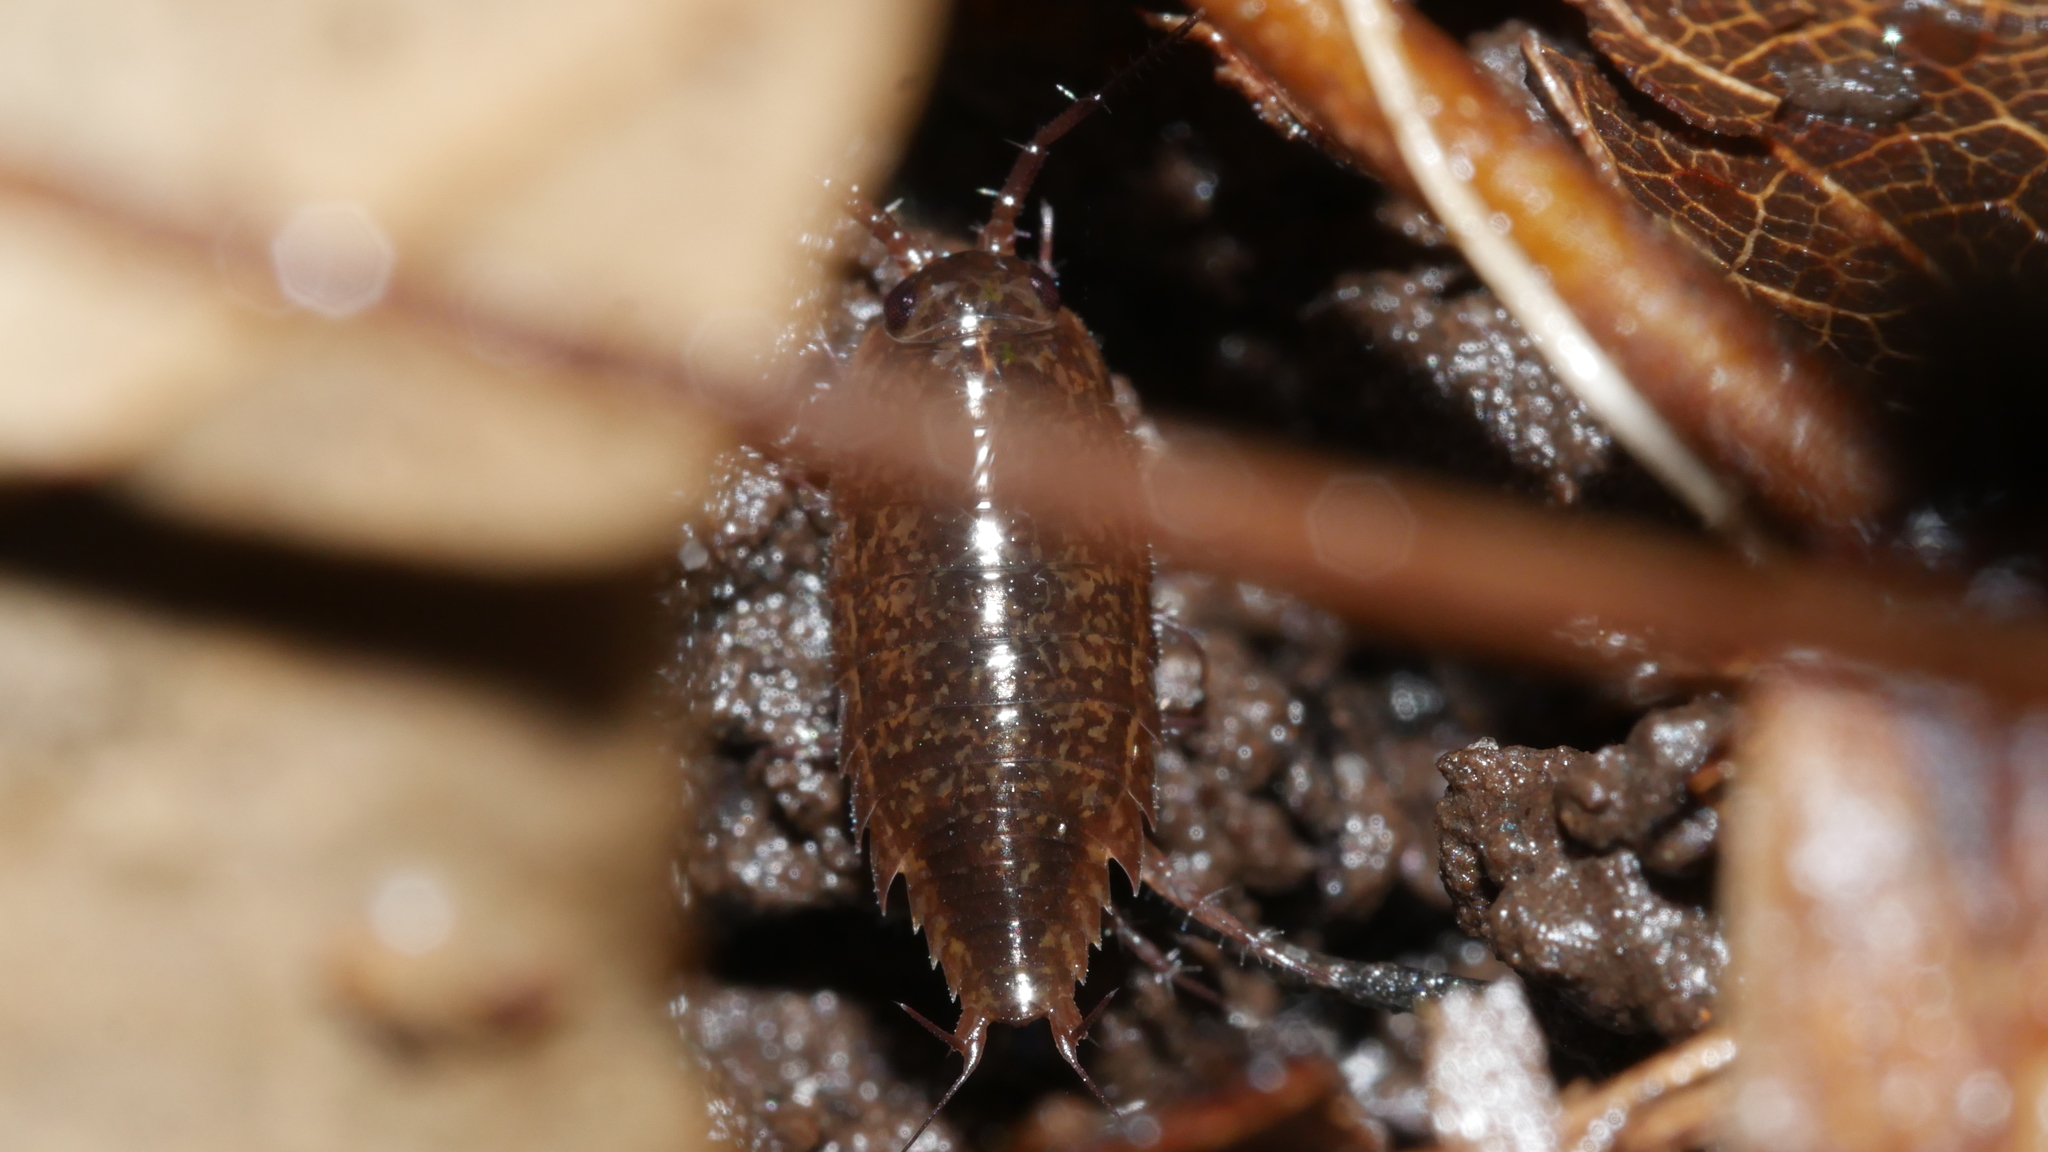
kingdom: Animalia
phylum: Arthropoda
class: Malacostraca
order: Isopoda
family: Ligiidae
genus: Ligidium
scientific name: Ligidium elrodii
